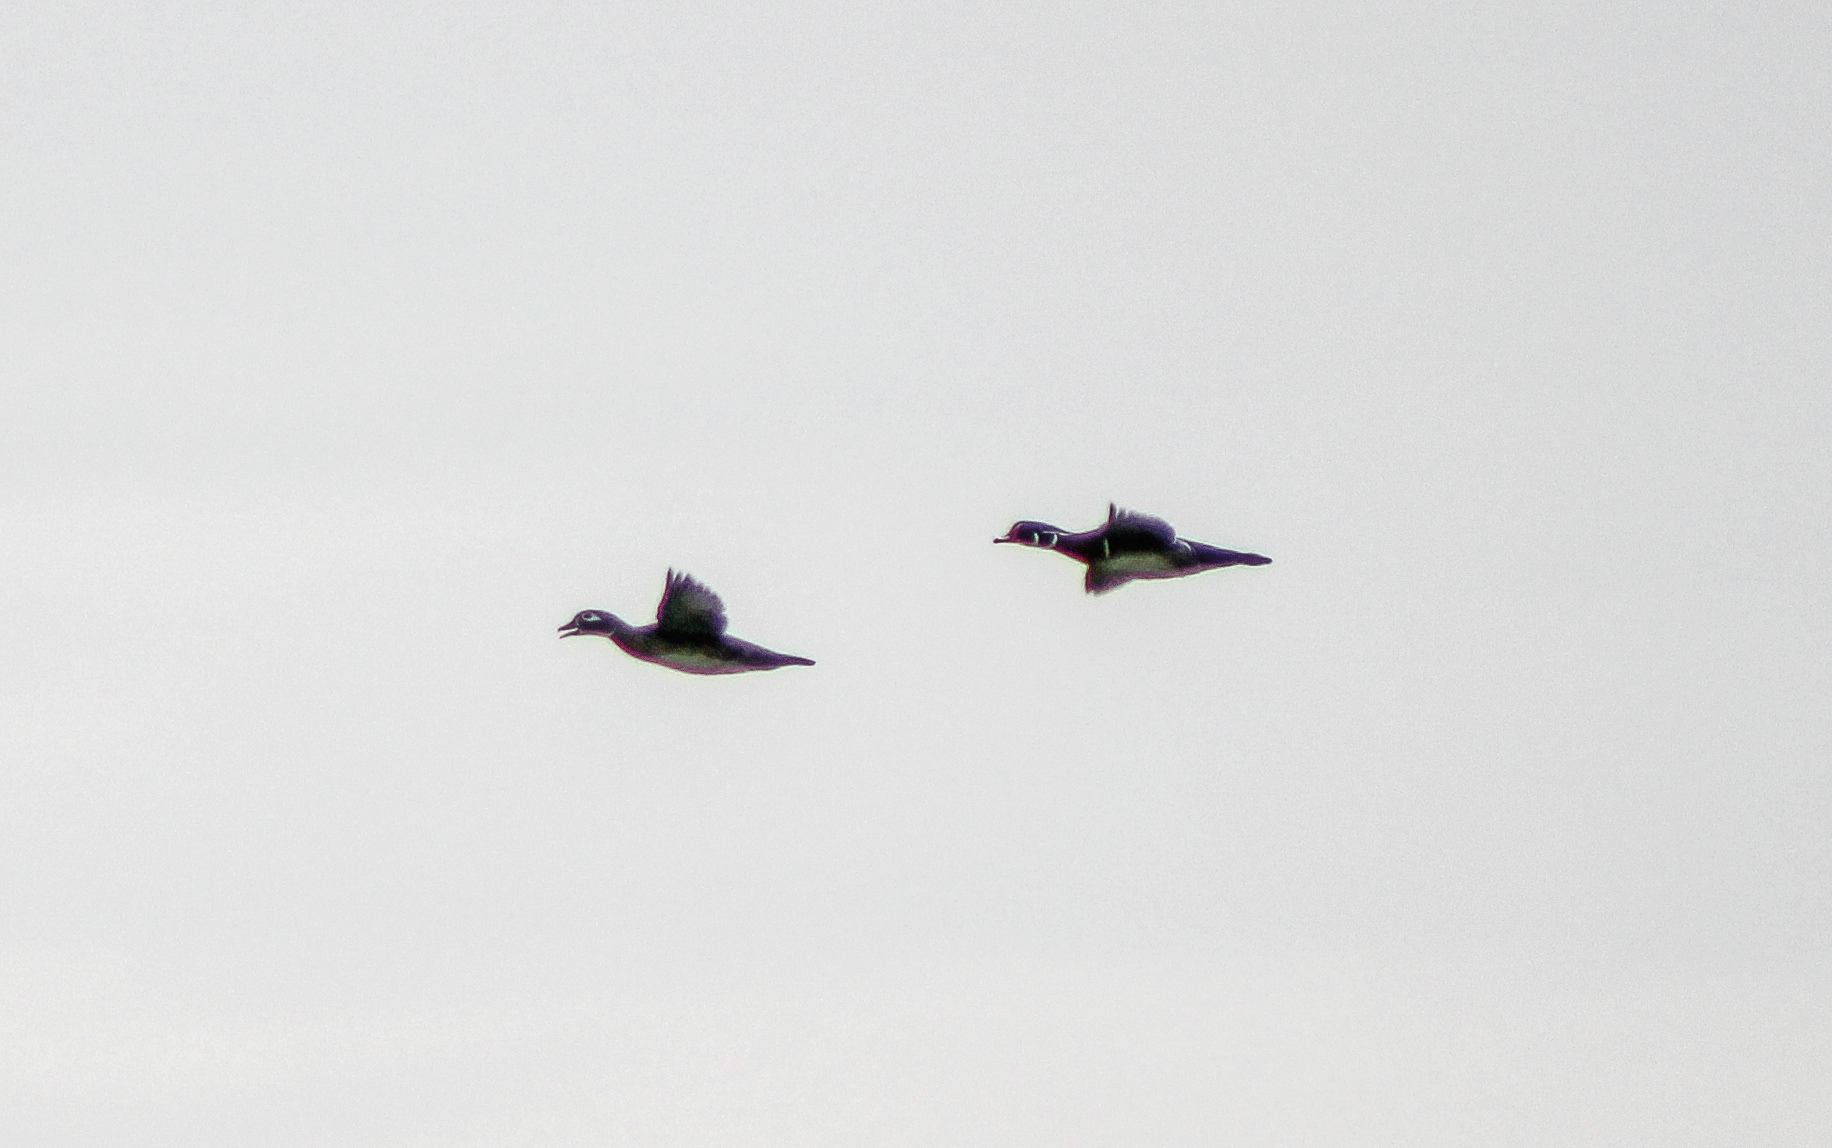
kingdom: Animalia
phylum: Chordata
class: Aves
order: Anseriformes
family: Anatidae
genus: Aix
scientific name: Aix sponsa
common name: Wood duck
